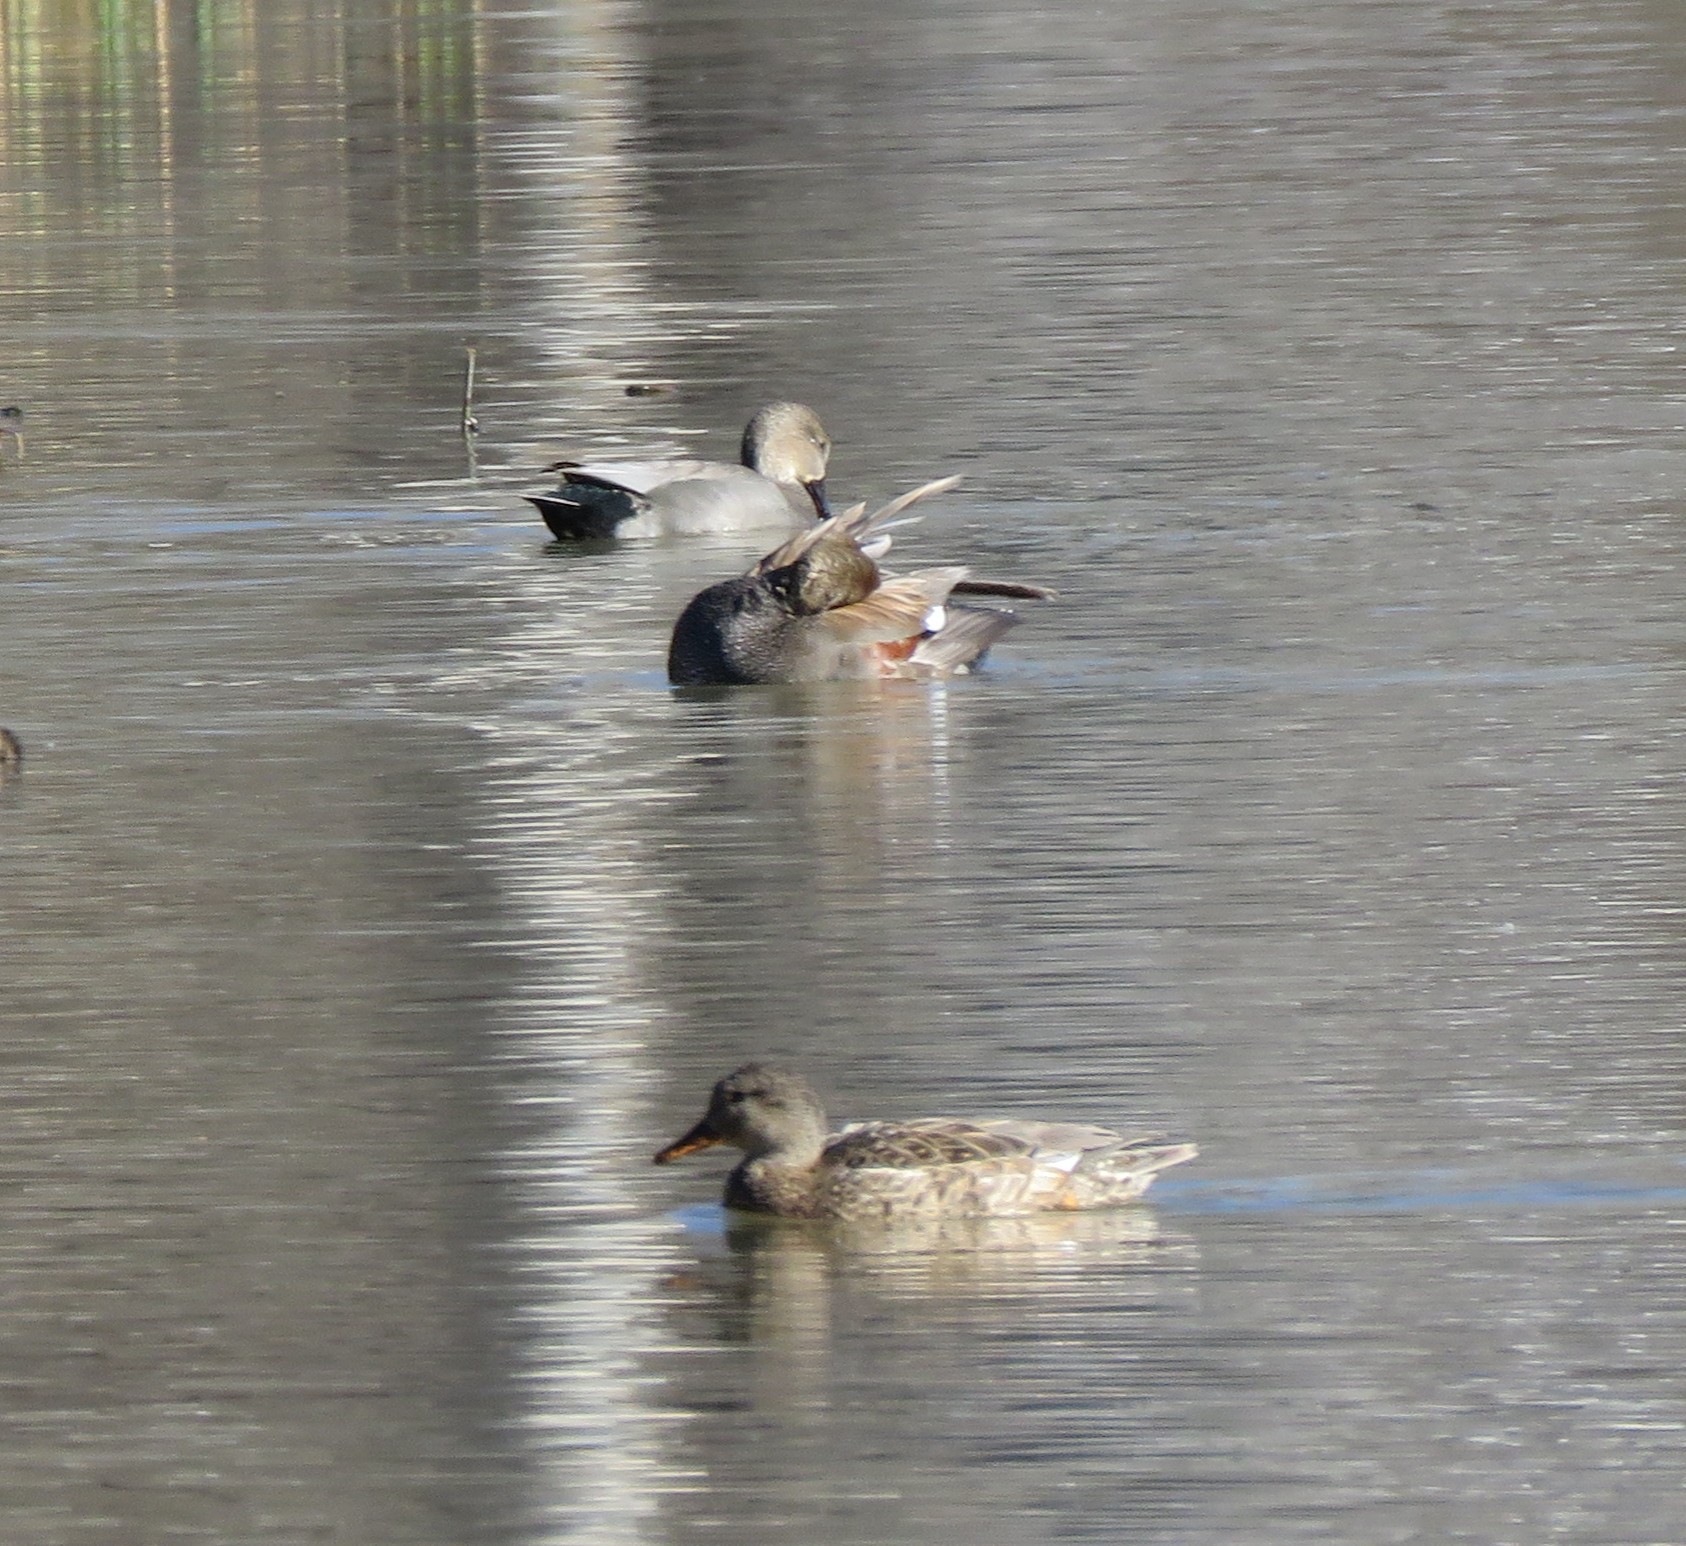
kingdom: Animalia
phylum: Chordata
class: Aves
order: Anseriformes
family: Anatidae
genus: Mareca
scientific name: Mareca strepera
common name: Gadwall
